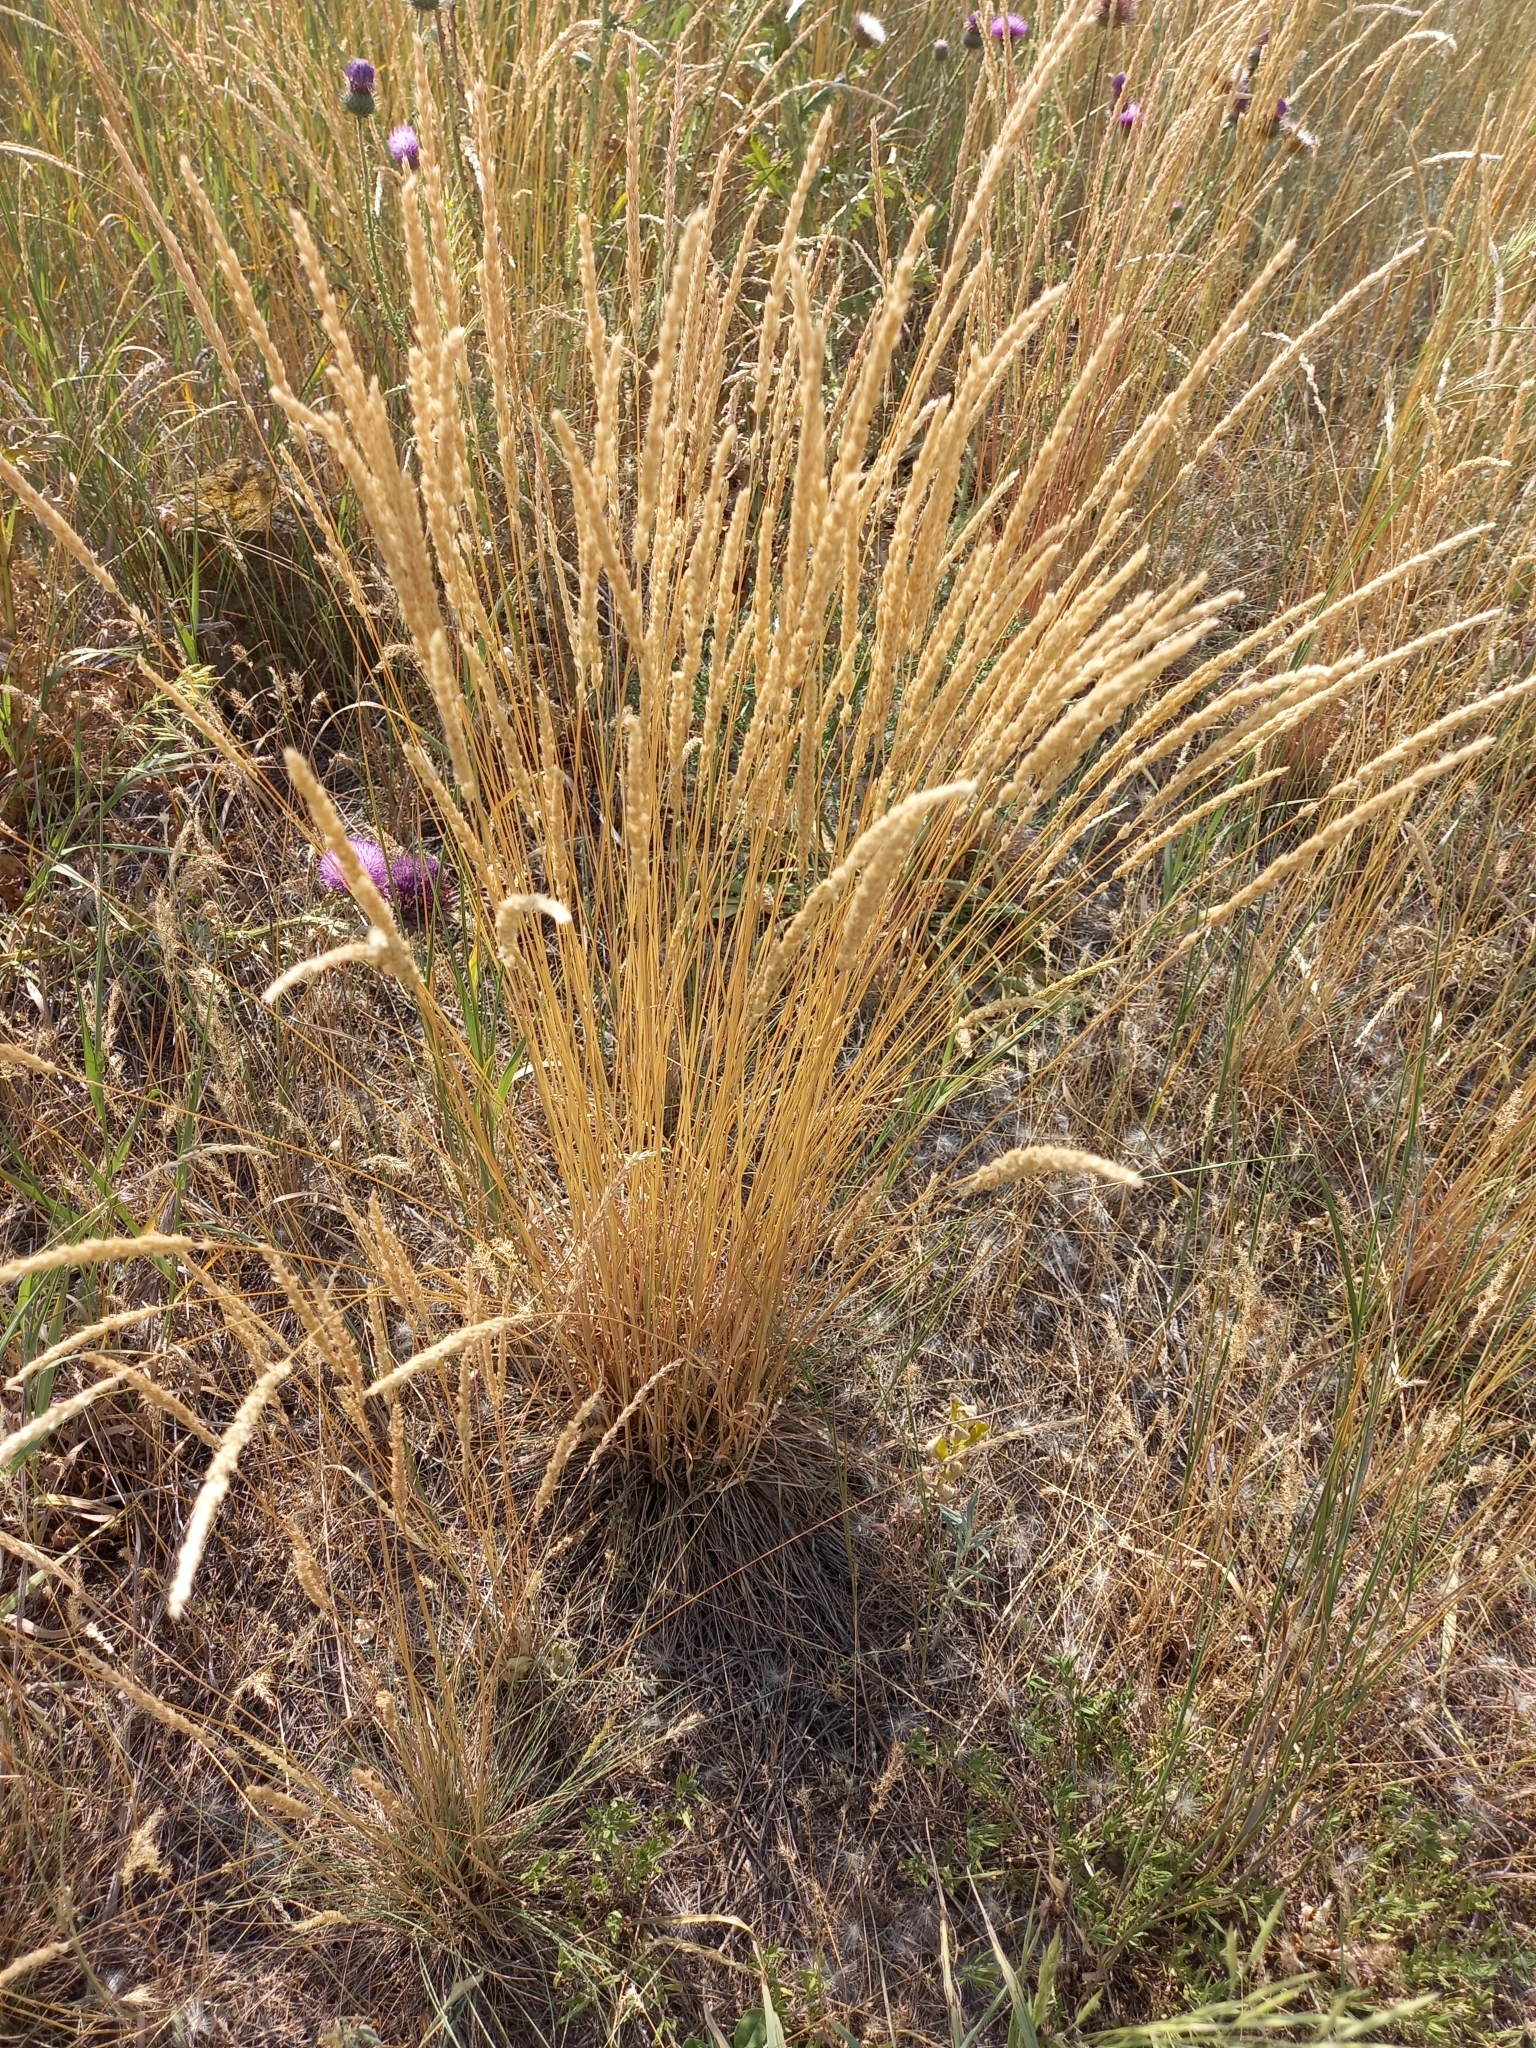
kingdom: Plantae
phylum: Tracheophyta
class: Liliopsida
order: Poales
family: Poaceae
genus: Koeleria
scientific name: Koeleria macrantha
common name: Crested hair-grass
